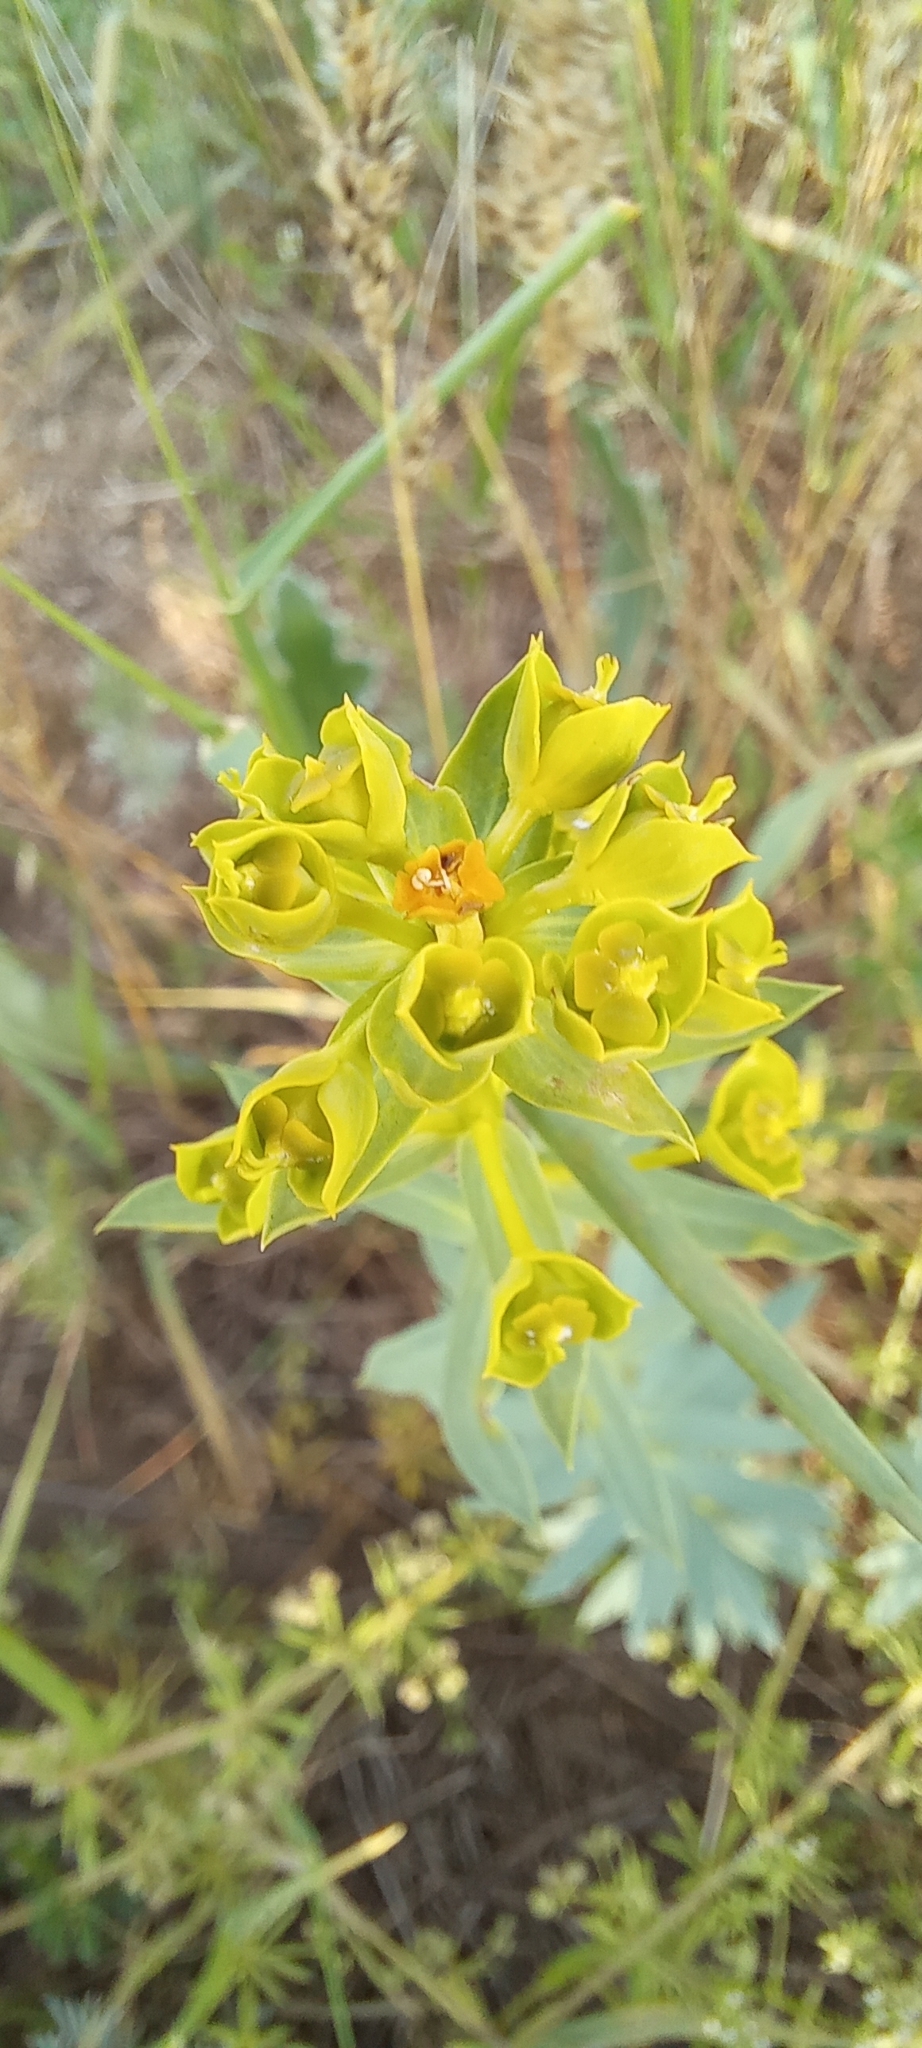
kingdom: Plantae
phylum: Tracheophyta
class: Magnoliopsida
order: Malpighiales
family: Euphorbiaceae
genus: Euphorbia
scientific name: Euphorbia seguieriana
